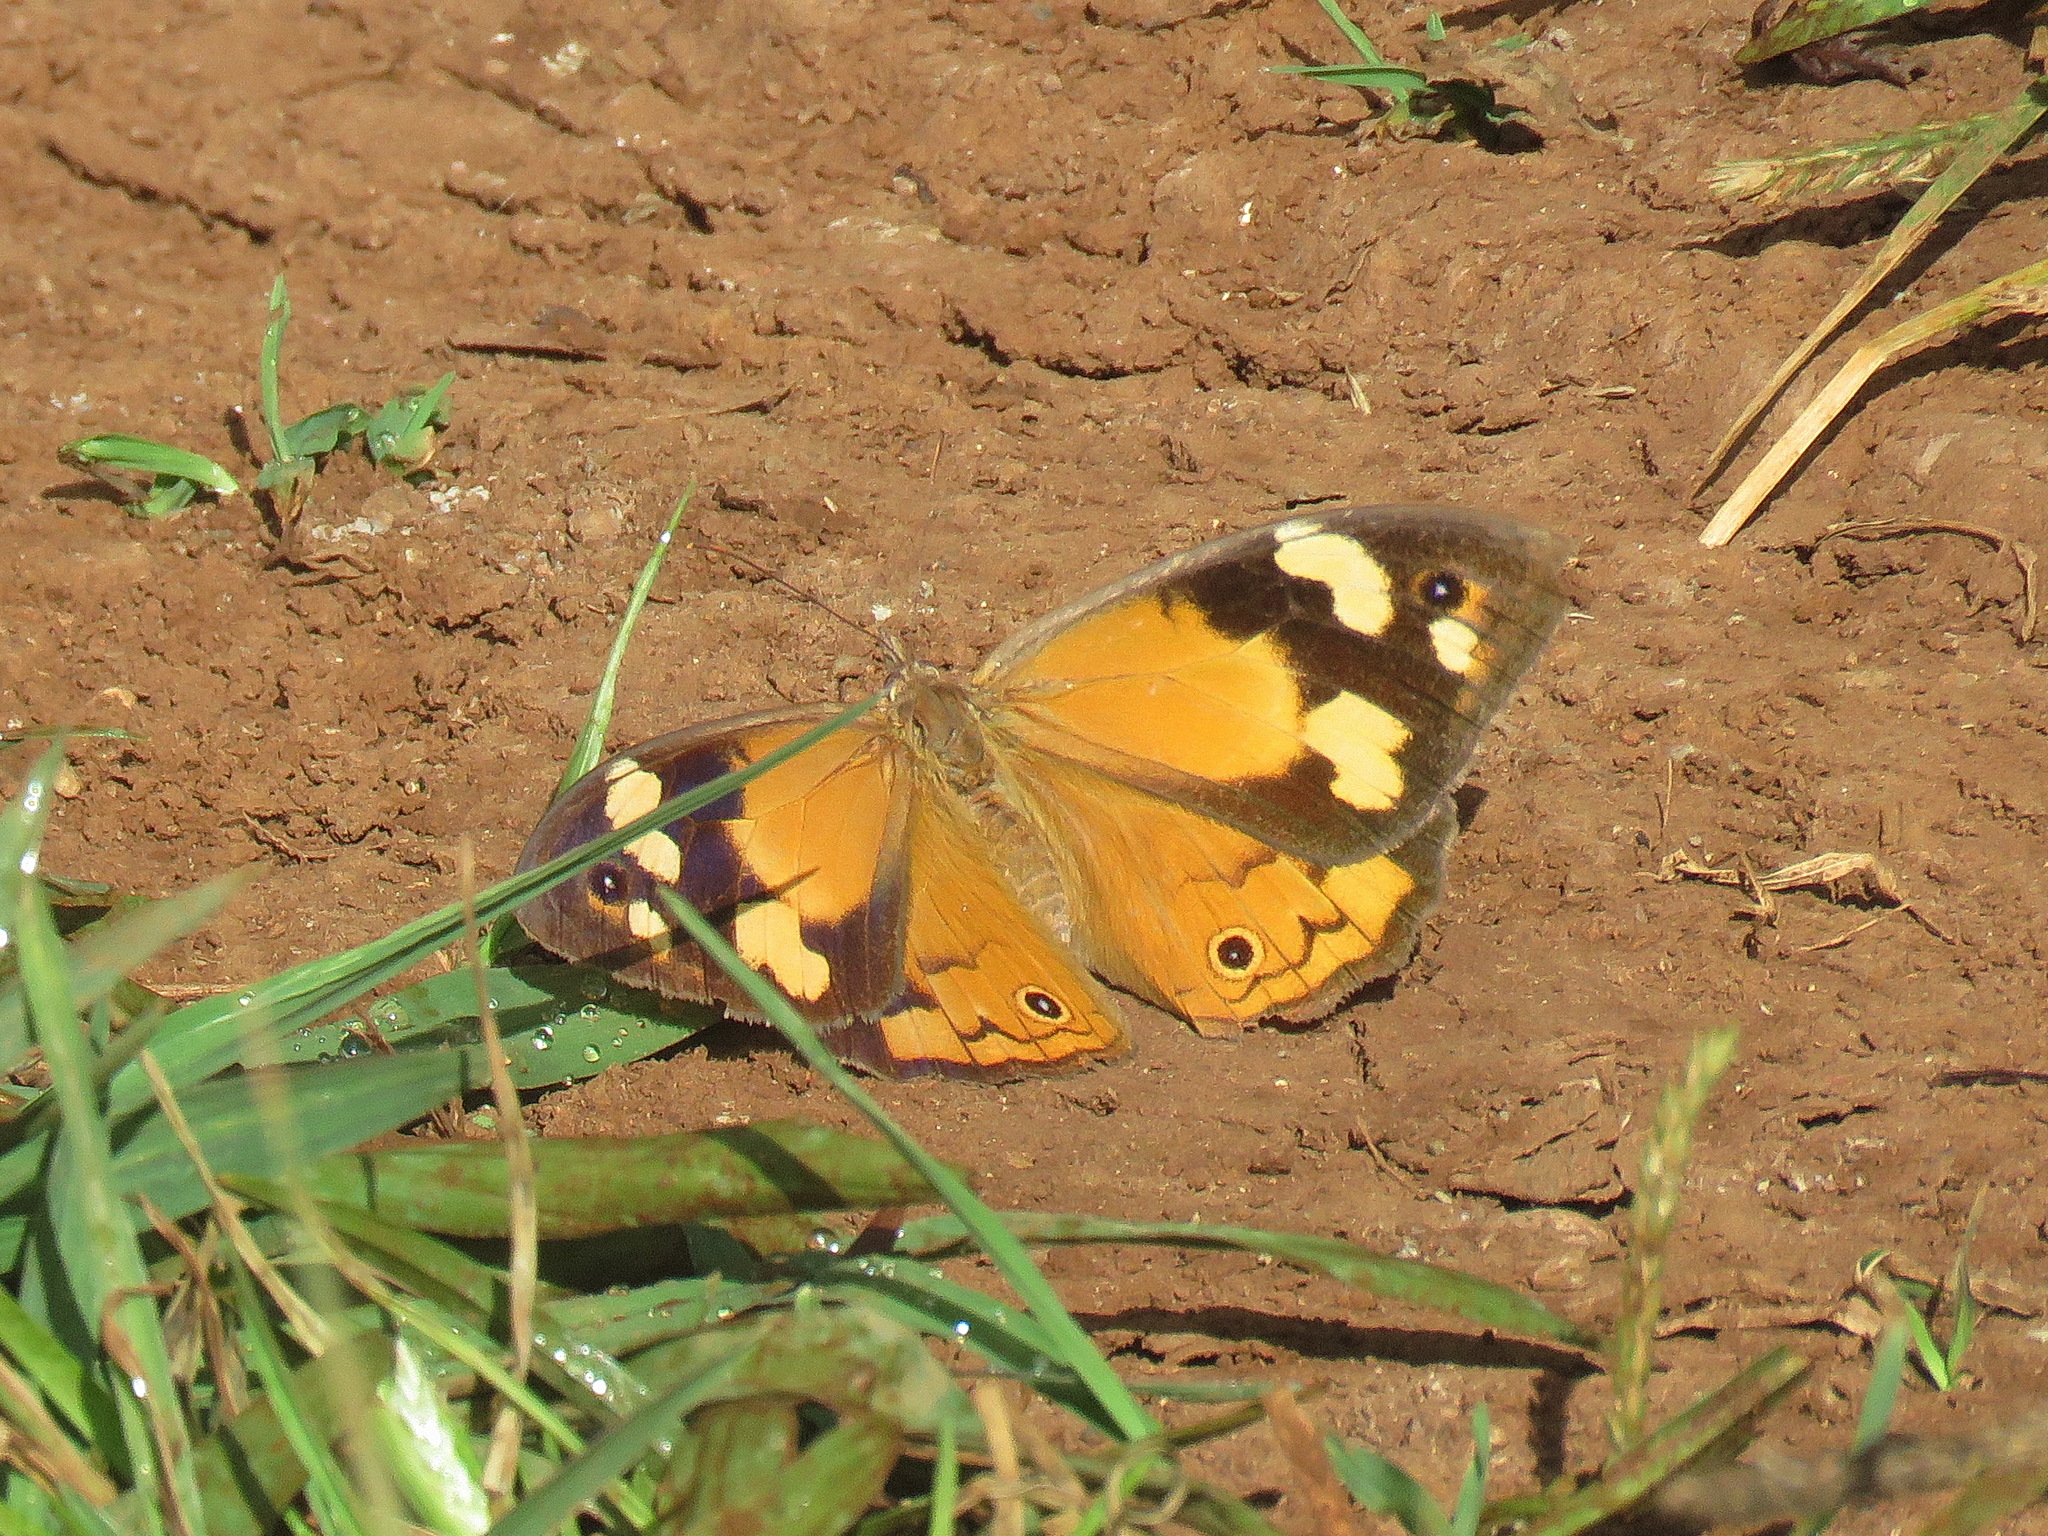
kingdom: Animalia
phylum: Arthropoda
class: Insecta
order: Lepidoptera
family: Nymphalidae
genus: Heteronympha
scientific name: Heteronympha merope
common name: Common brown
